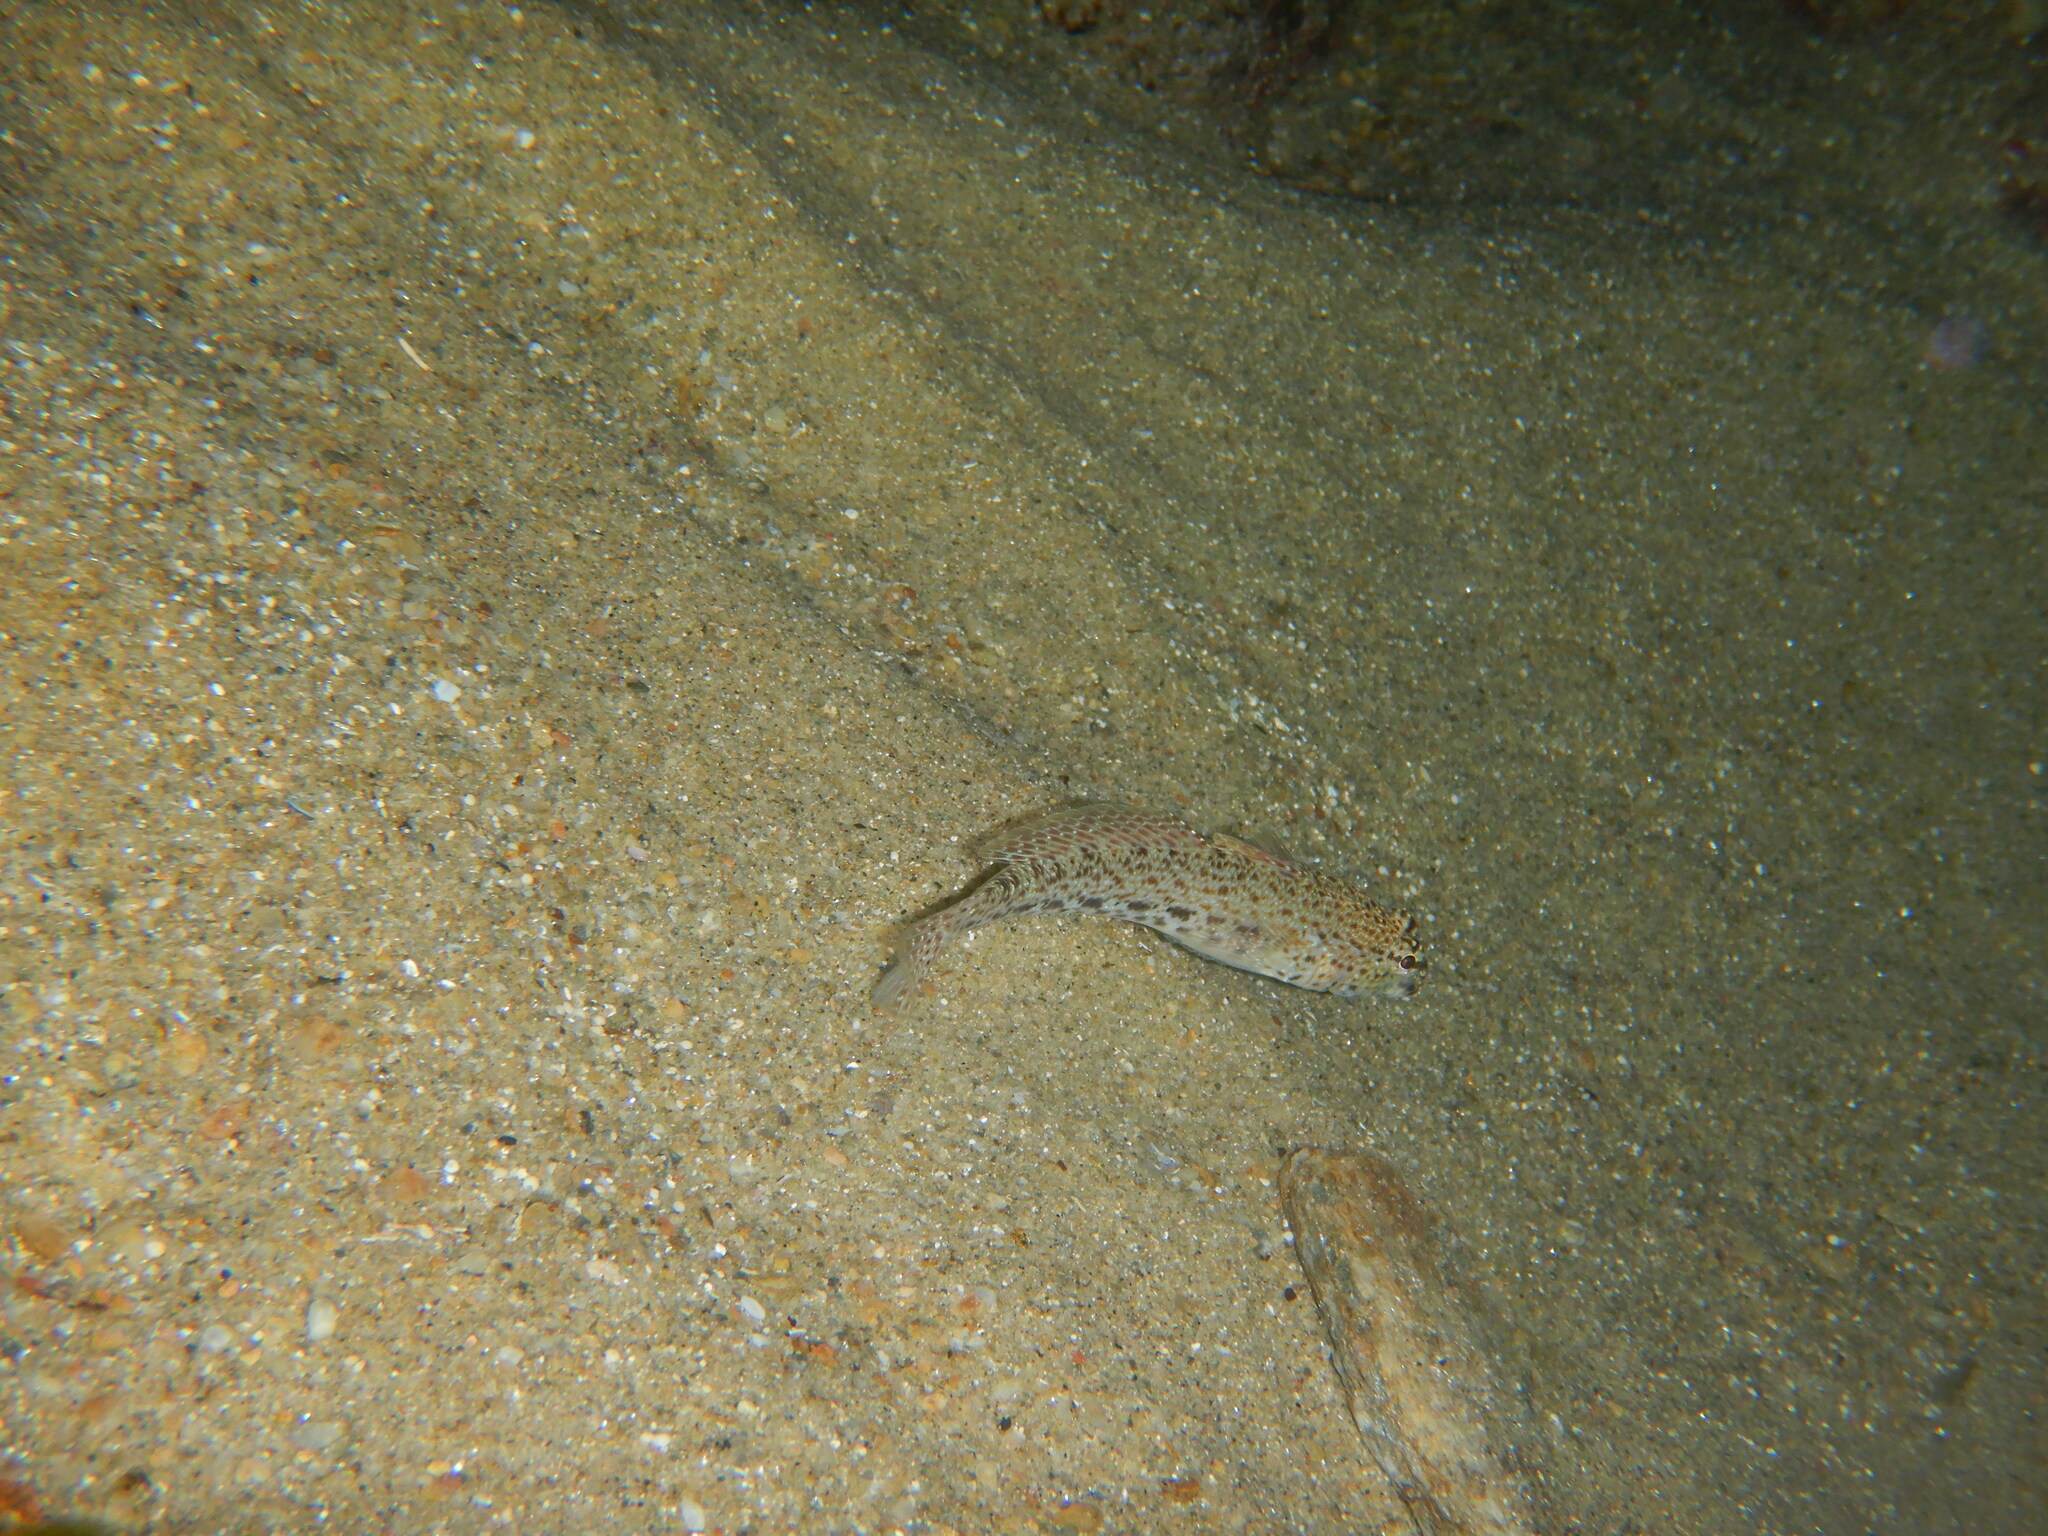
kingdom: Animalia
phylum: Chordata
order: Perciformes
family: Gobiidae
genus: Gobius
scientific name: Gobius incognitus
